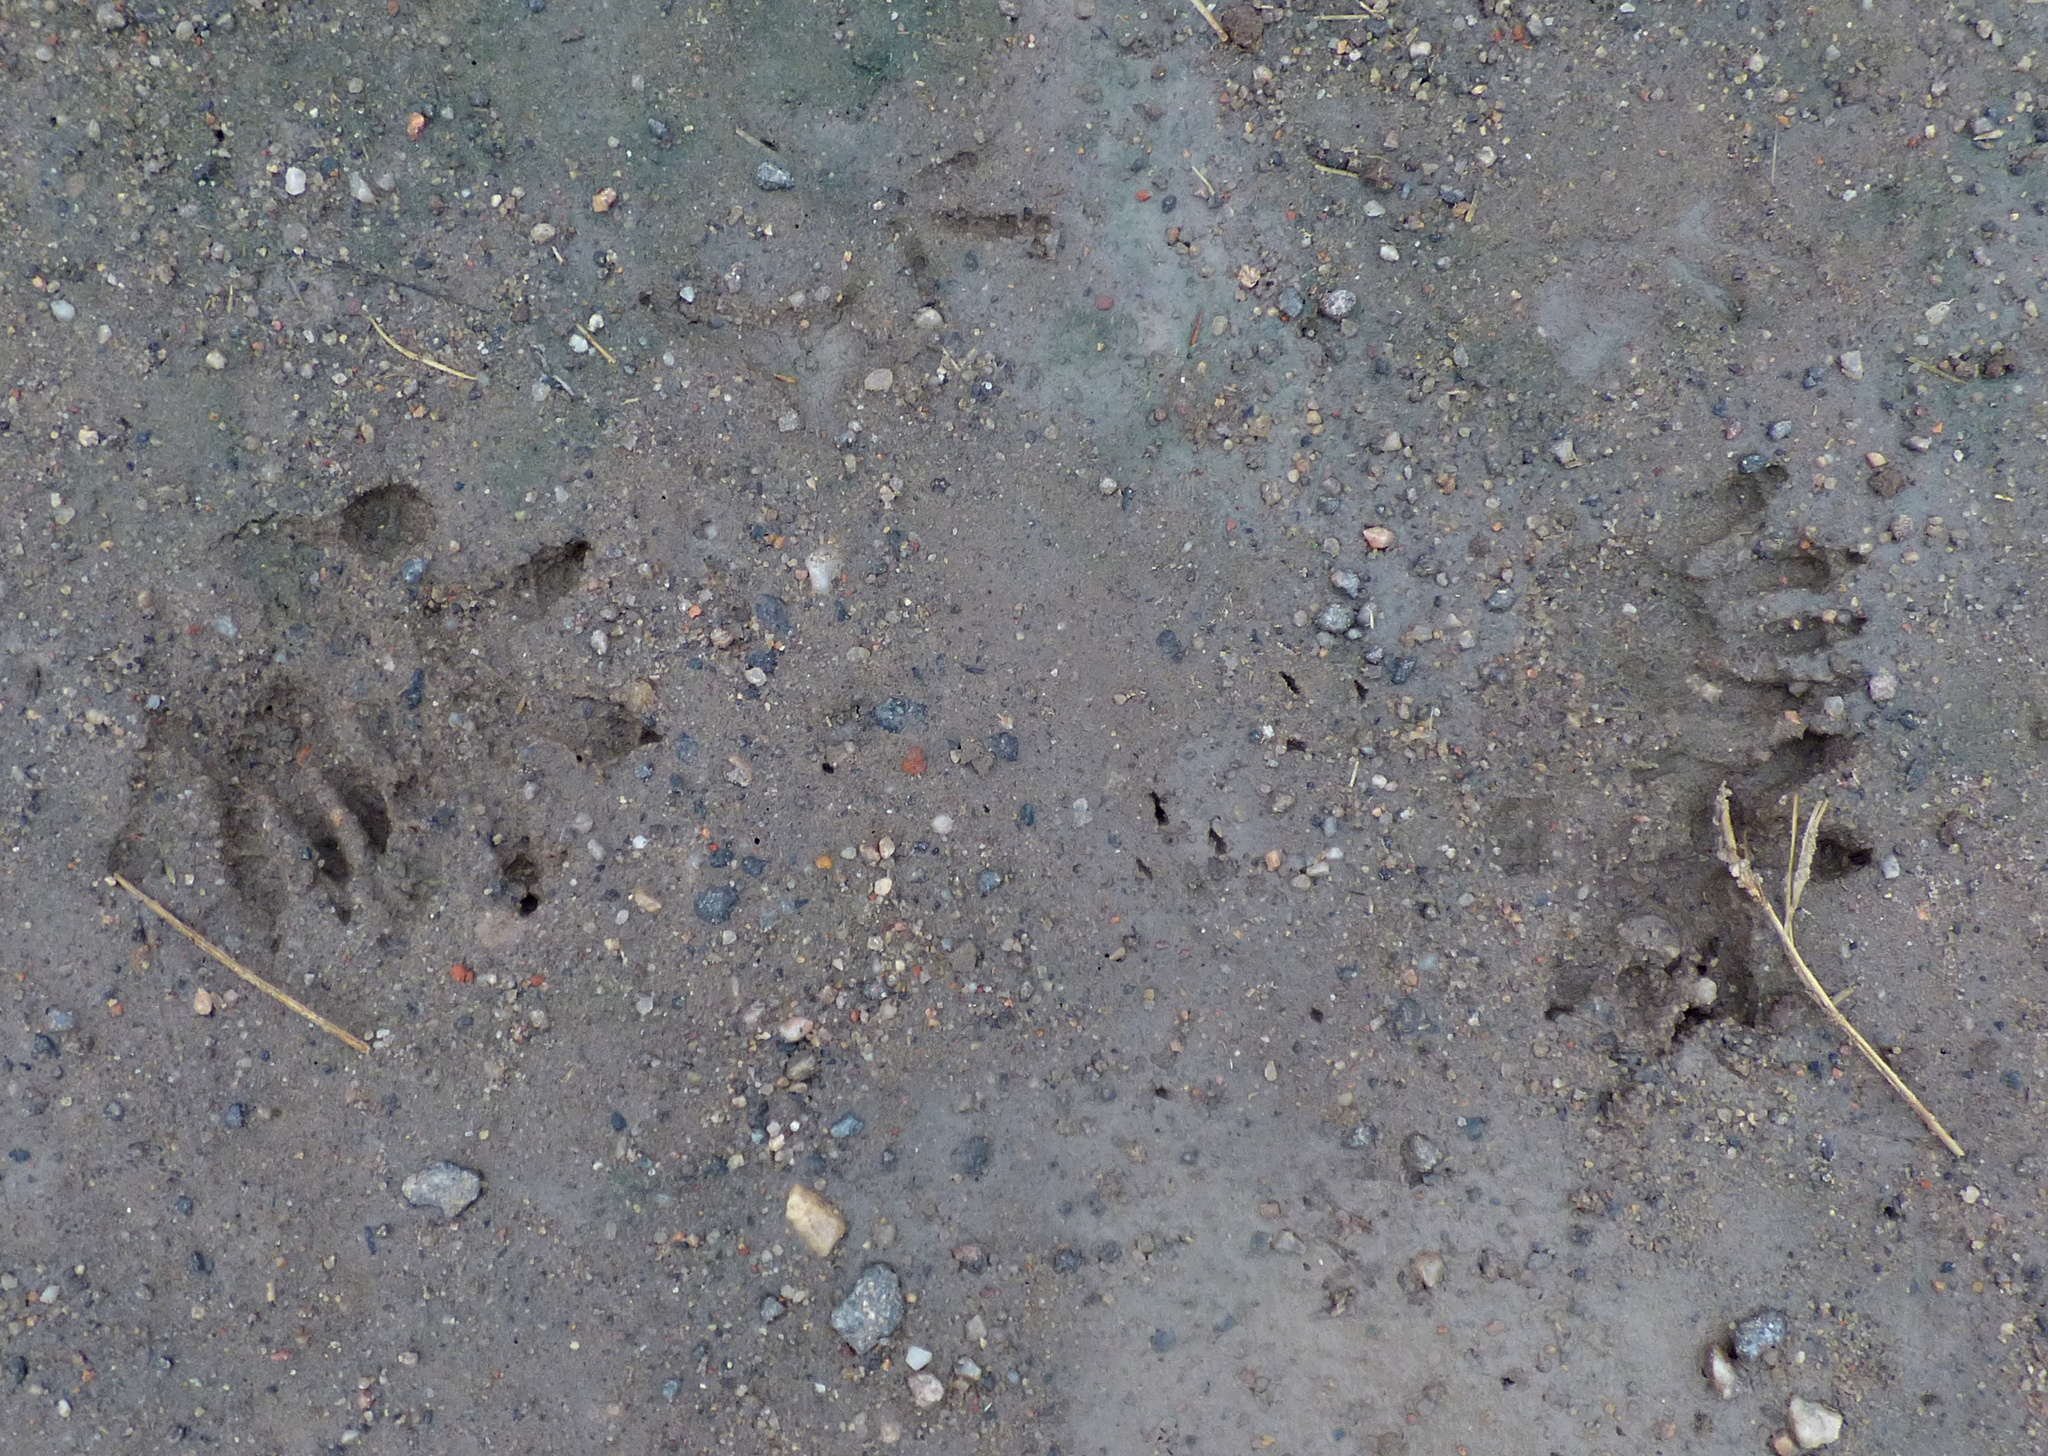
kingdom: Animalia
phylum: Chordata
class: Mammalia
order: Didelphimorphia
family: Didelphidae
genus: Didelphis
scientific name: Didelphis albiventris
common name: White-eared opossum
